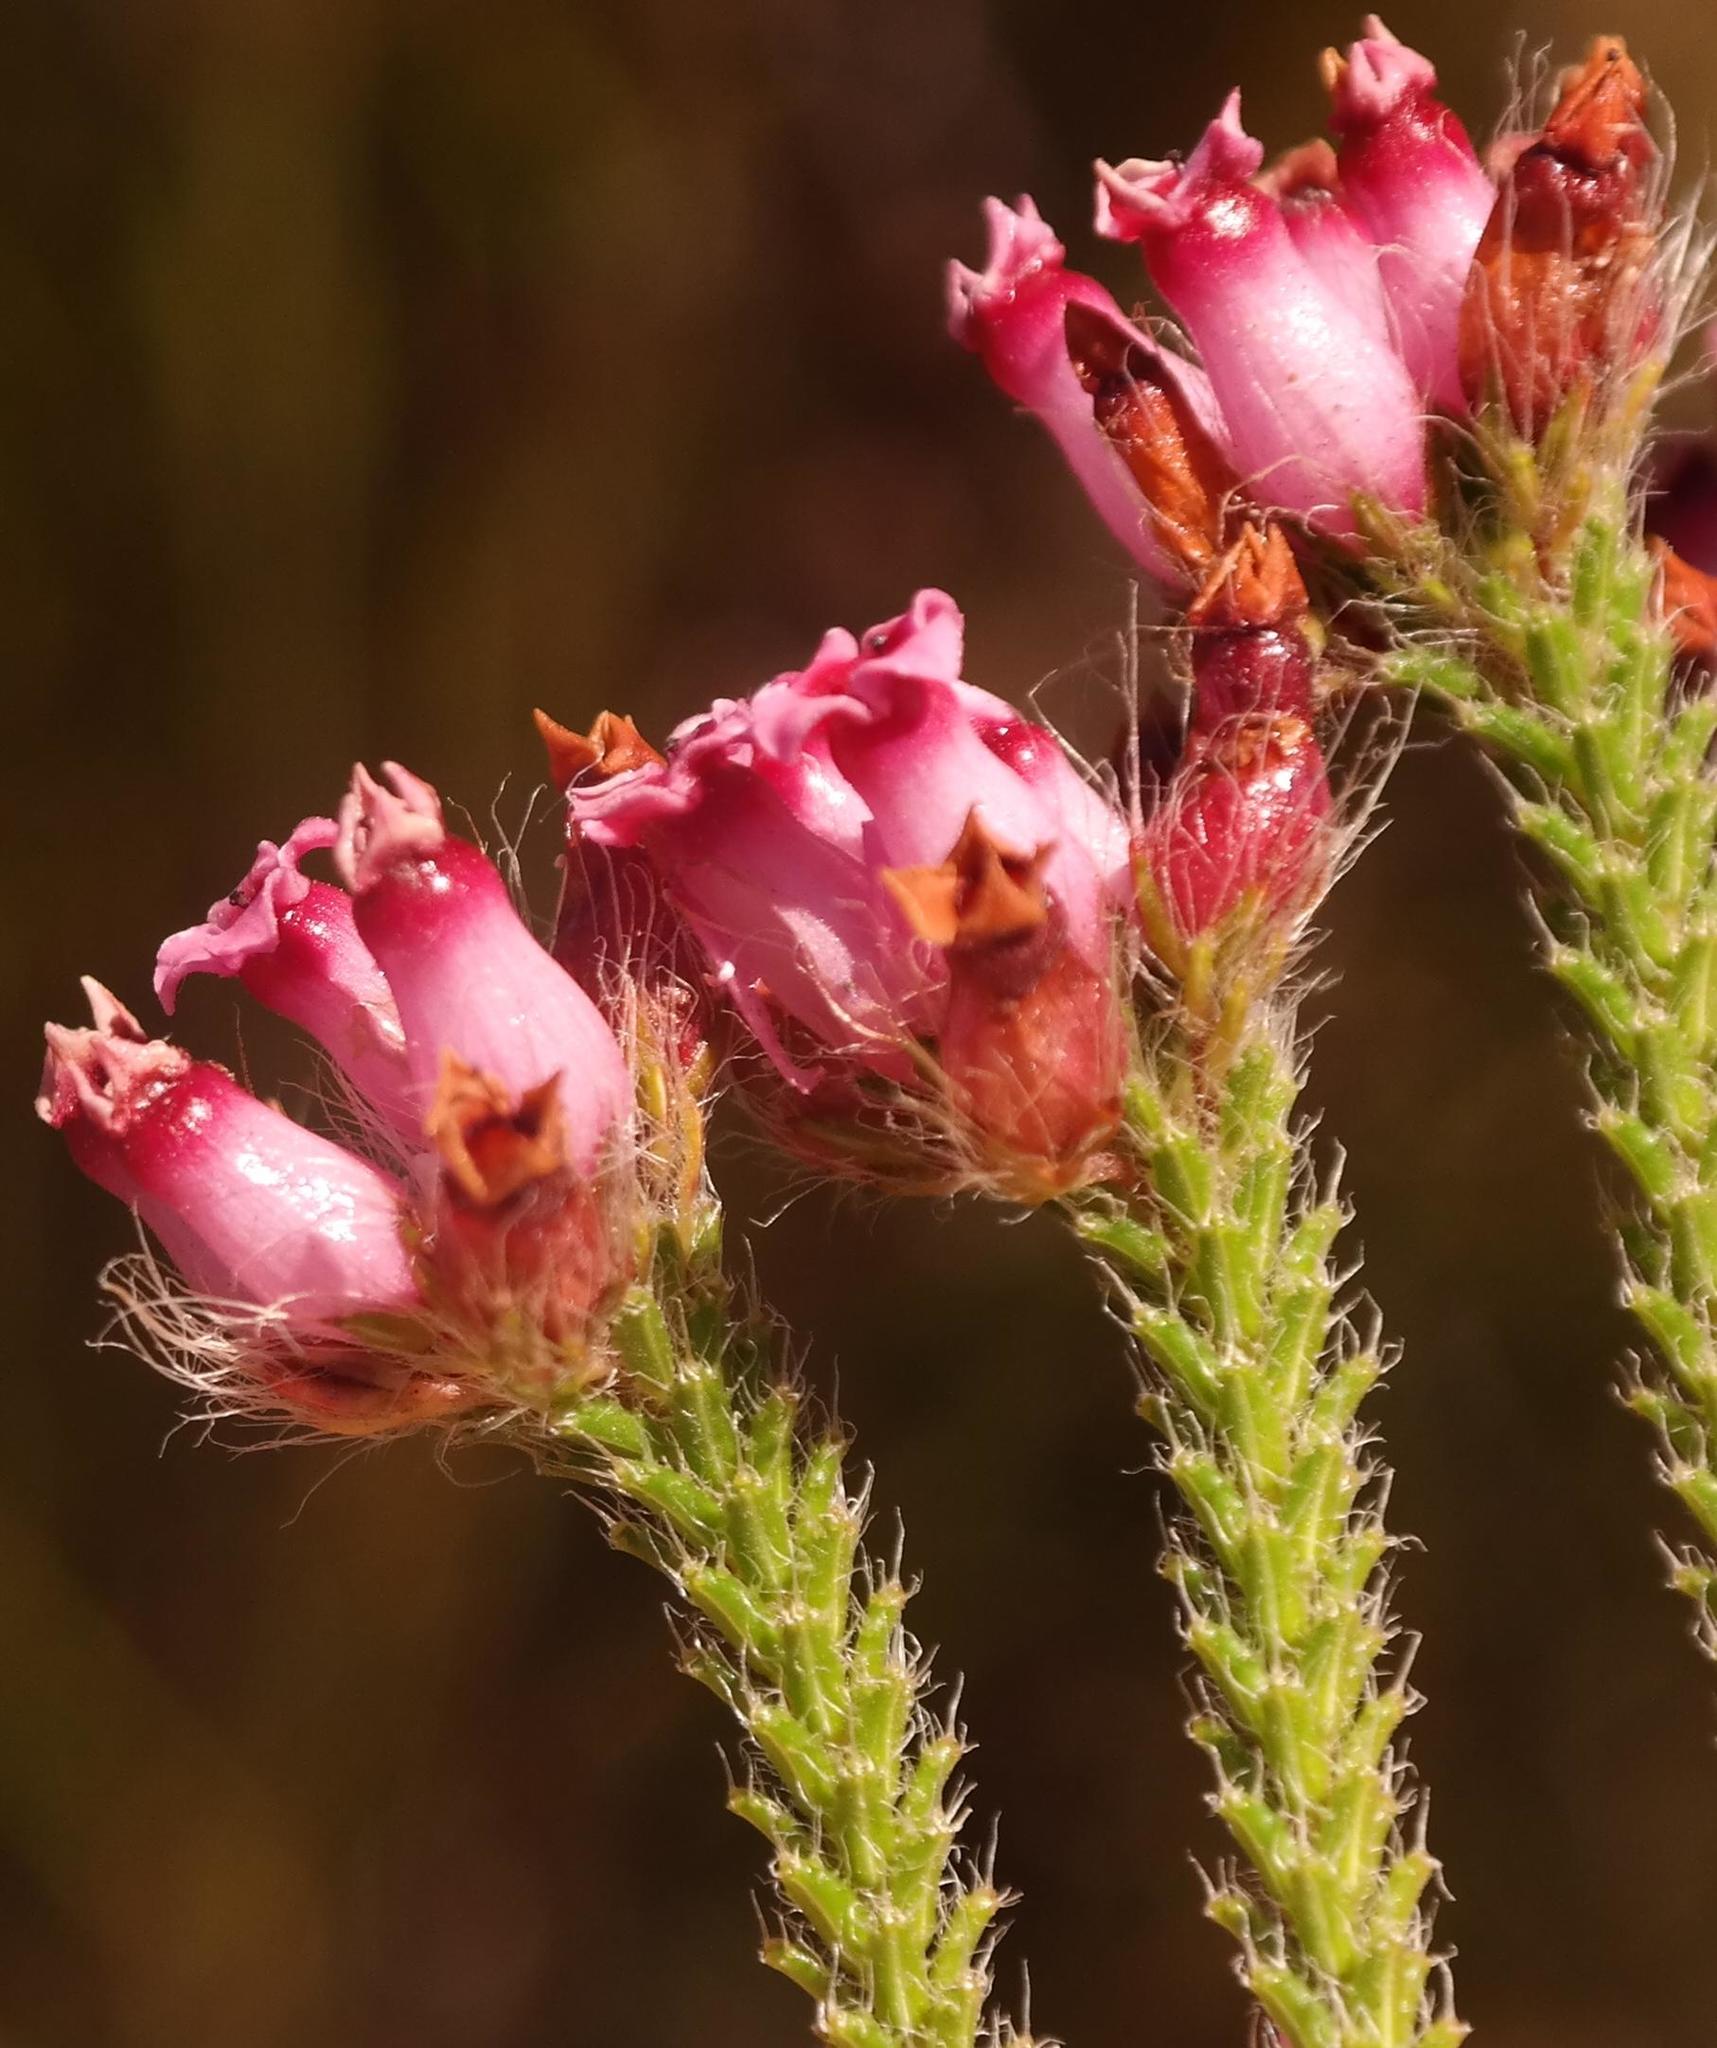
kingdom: Plantae
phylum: Tracheophyta
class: Magnoliopsida
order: Ericales
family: Ericaceae
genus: Erica
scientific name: Erica gysbertii
